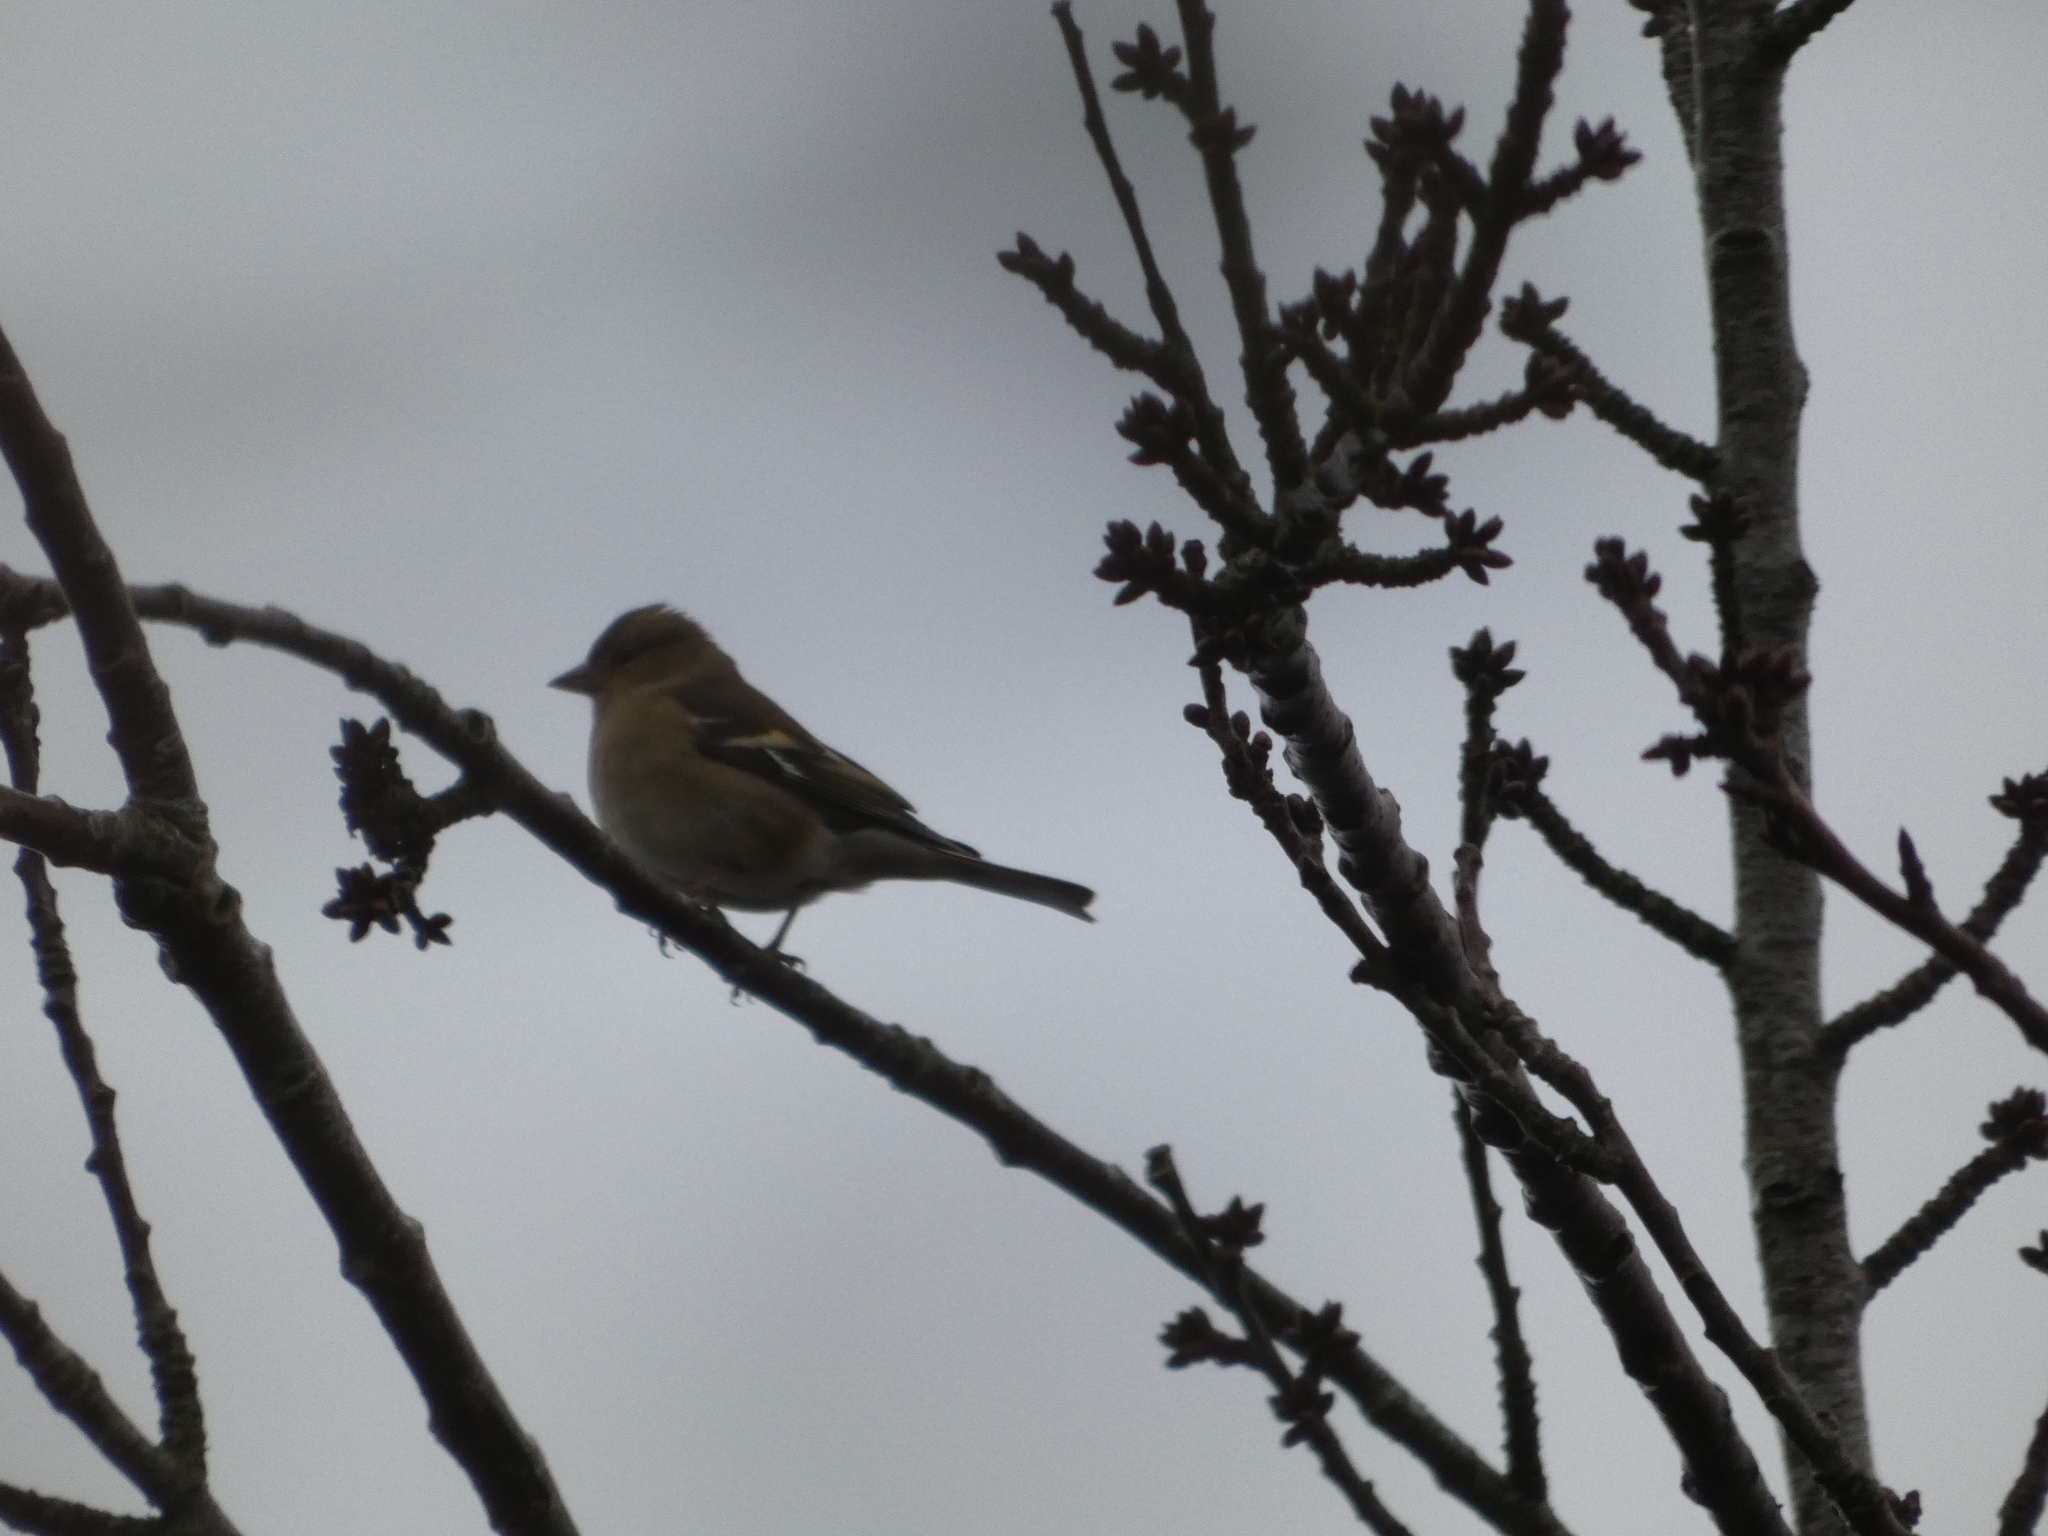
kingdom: Animalia
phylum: Chordata
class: Aves
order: Passeriformes
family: Fringillidae
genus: Fringilla
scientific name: Fringilla coelebs
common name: Common chaffinch
